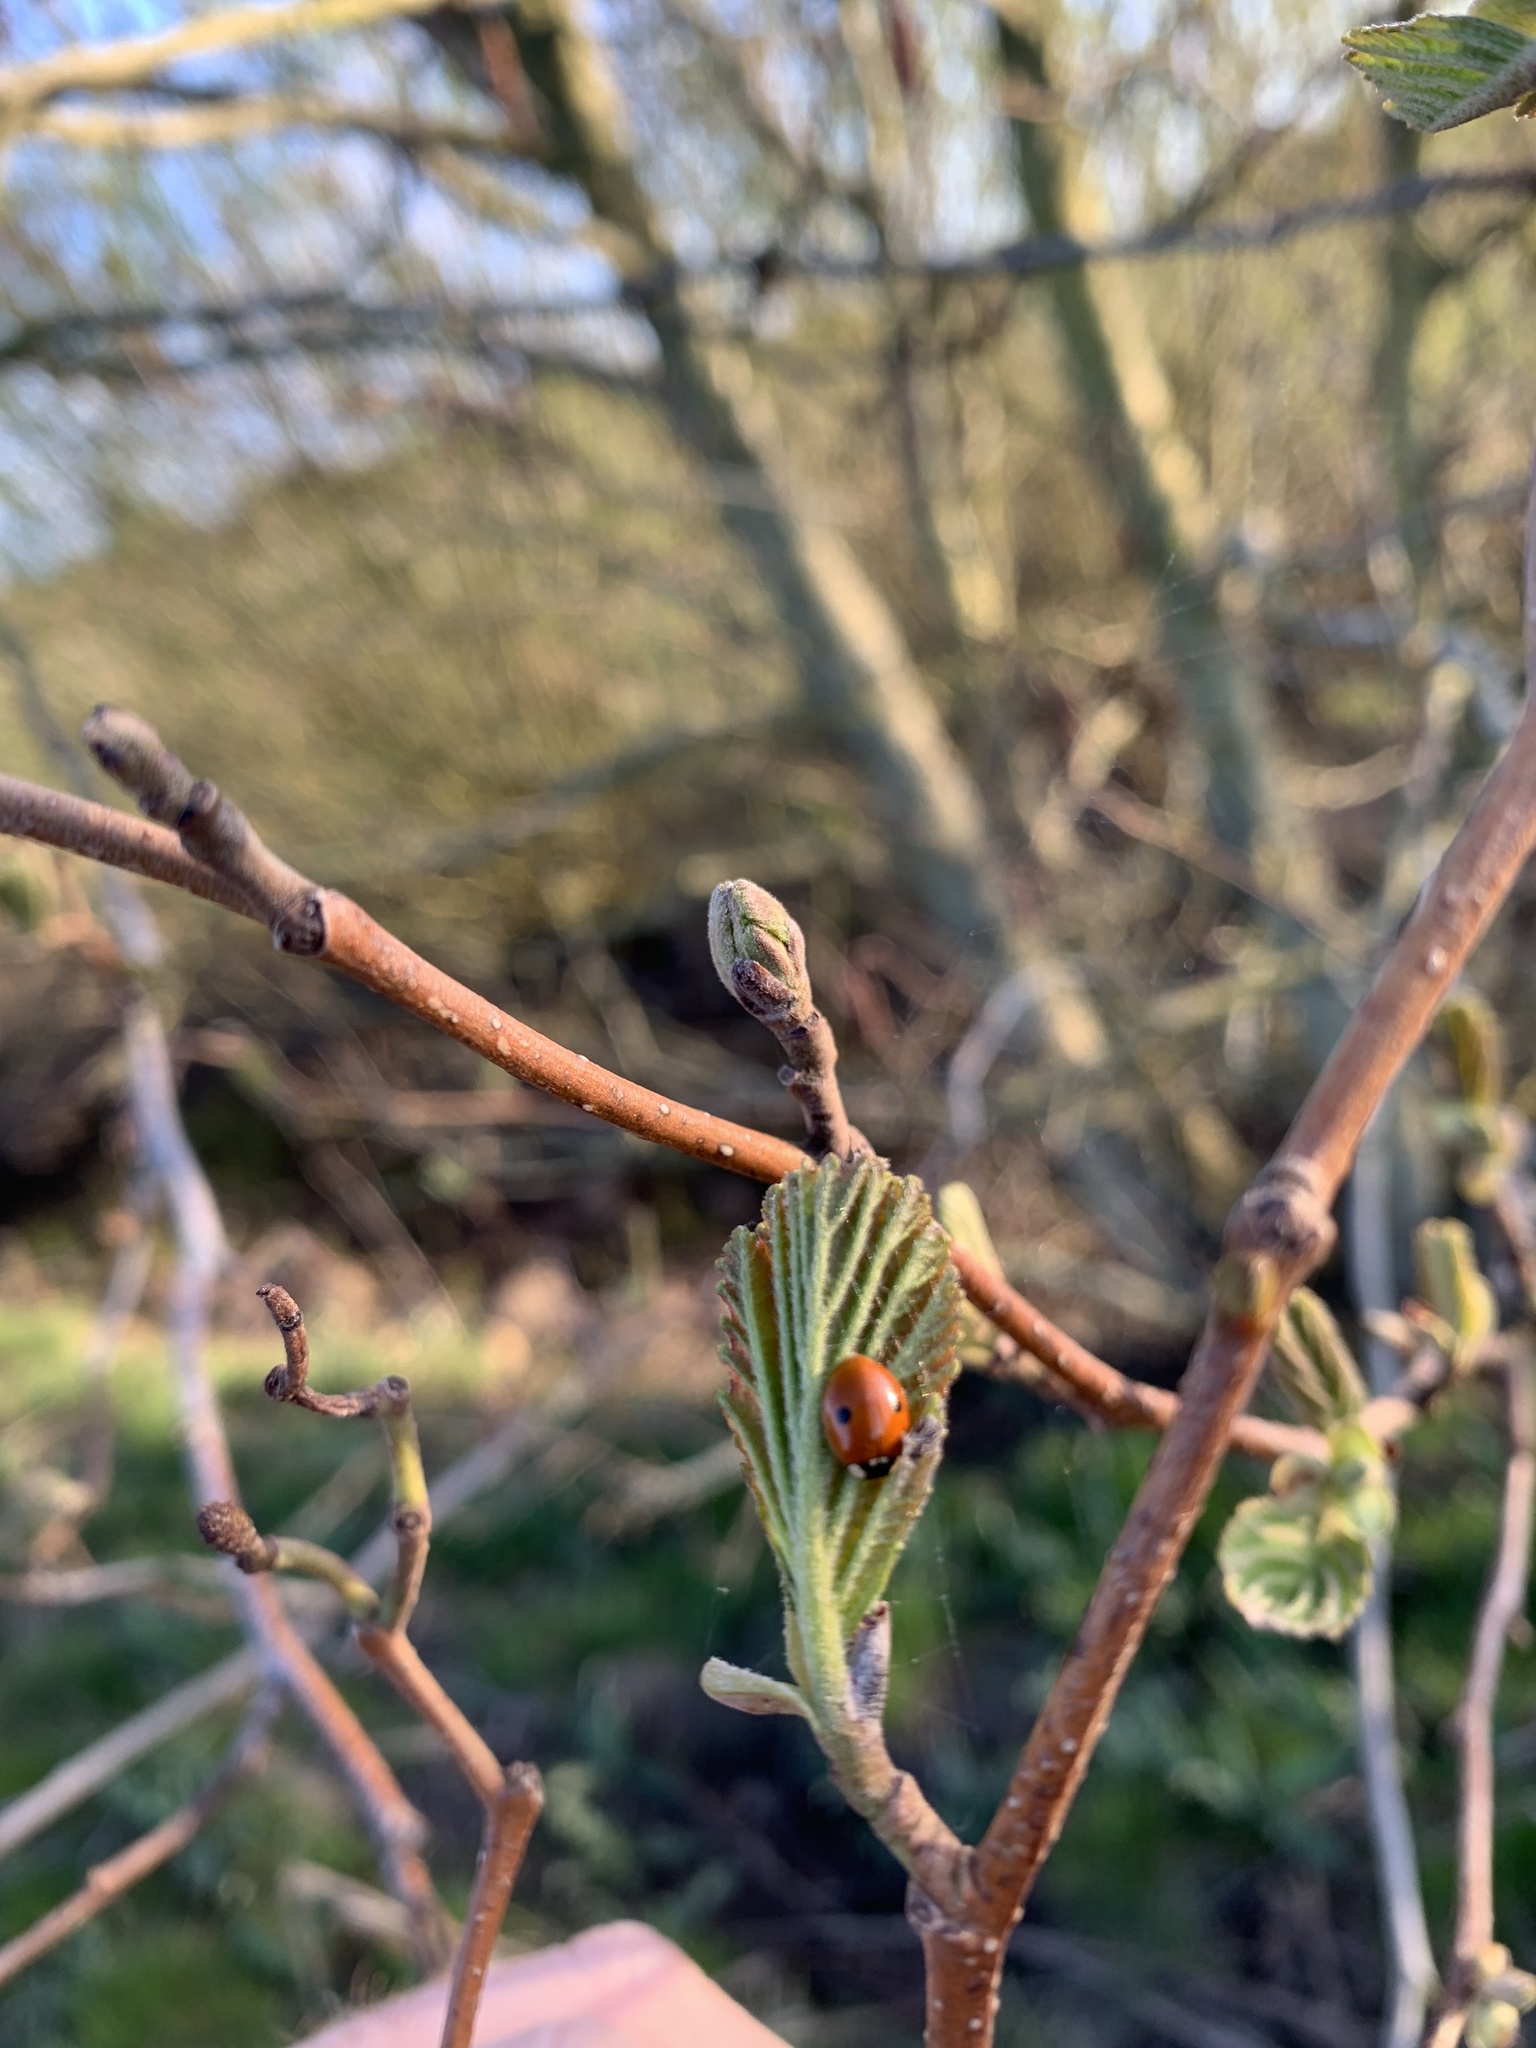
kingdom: Animalia
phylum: Arthropoda
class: Insecta
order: Coleoptera
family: Coccinellidae
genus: Adalia
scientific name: Adalia bipunctata
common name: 2-spot ladybird
